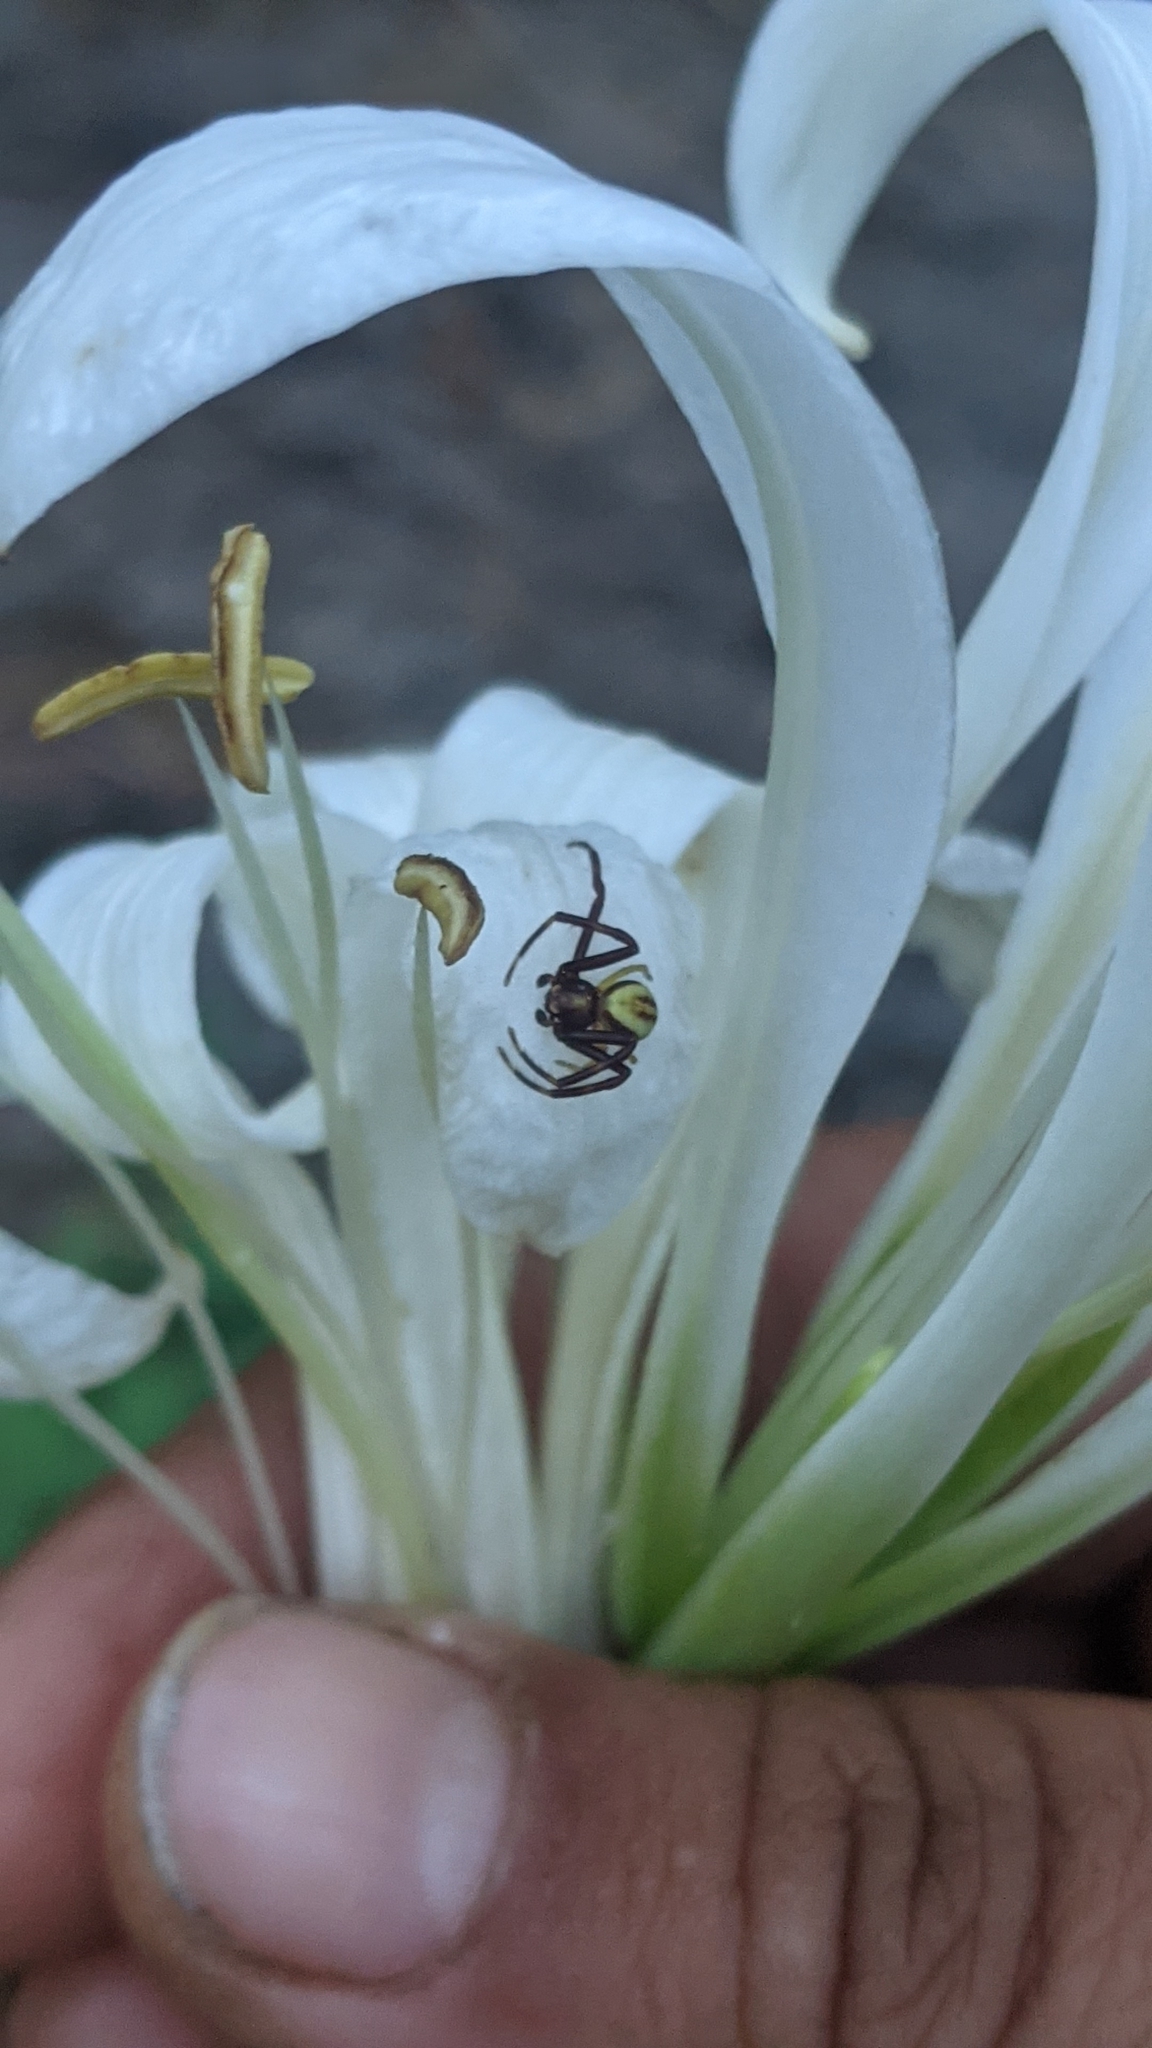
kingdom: Animalia
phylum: Arthropoda
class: Arachnida
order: Araneae
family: Thomisidae
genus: Misumena
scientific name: Misumena vatia
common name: Goldenrod crab spider
